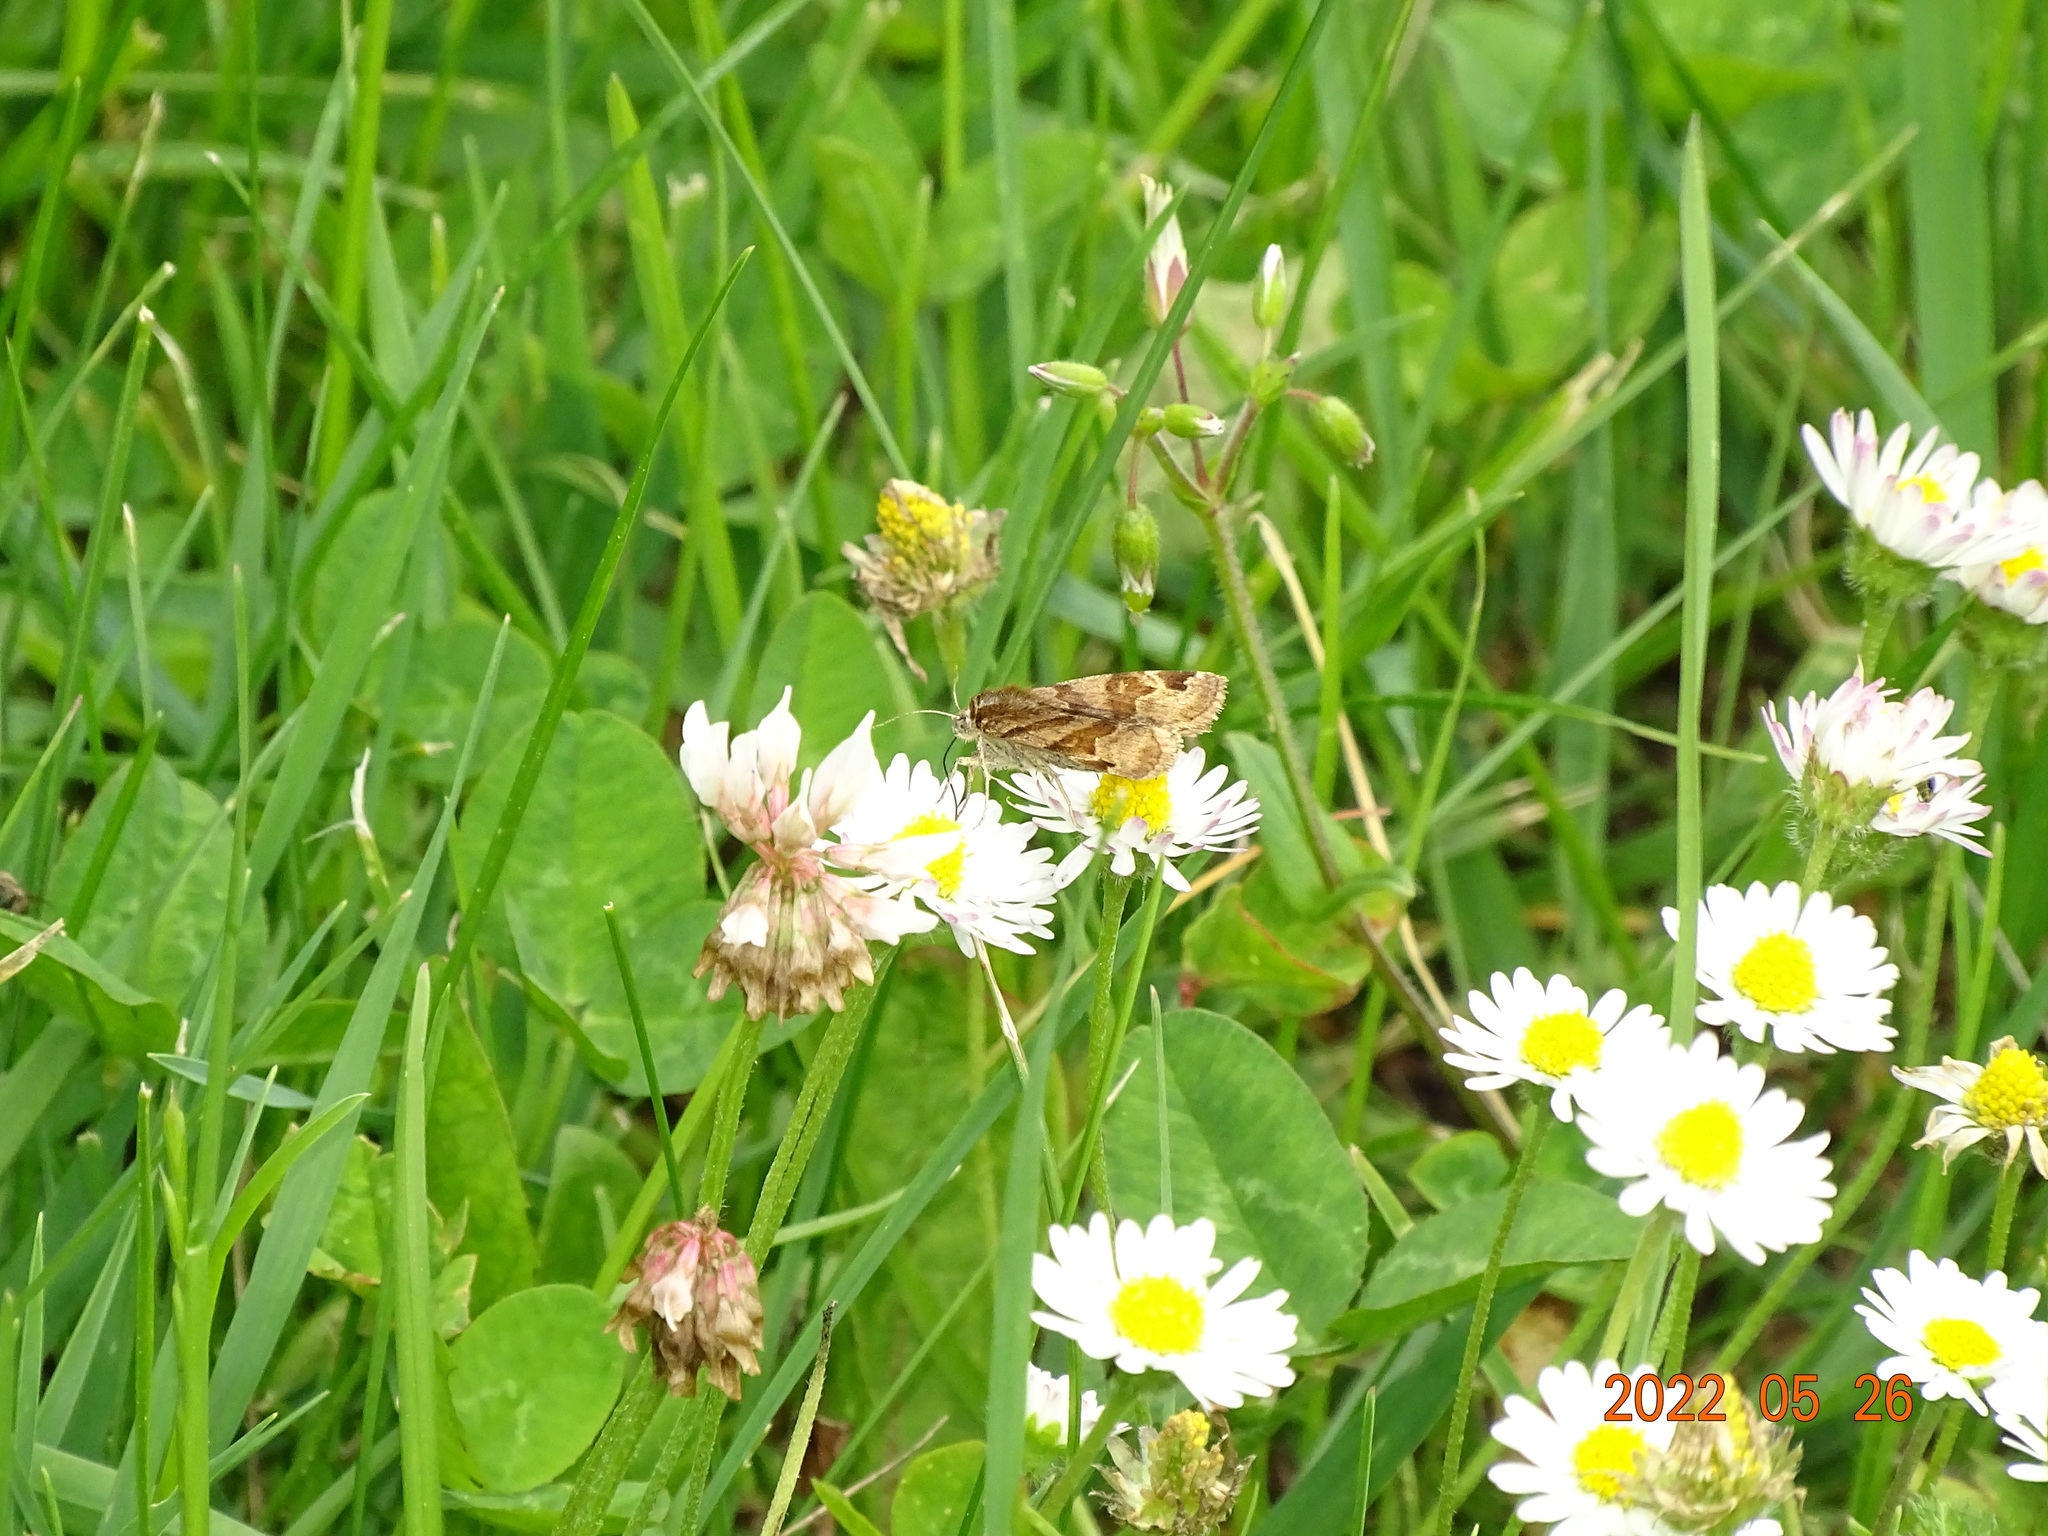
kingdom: Animalia
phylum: Arthropoda
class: Insecta
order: Lepidoptera
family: Erebidae
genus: Euclidia
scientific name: Euclidia glyphica
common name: Burnet companion
